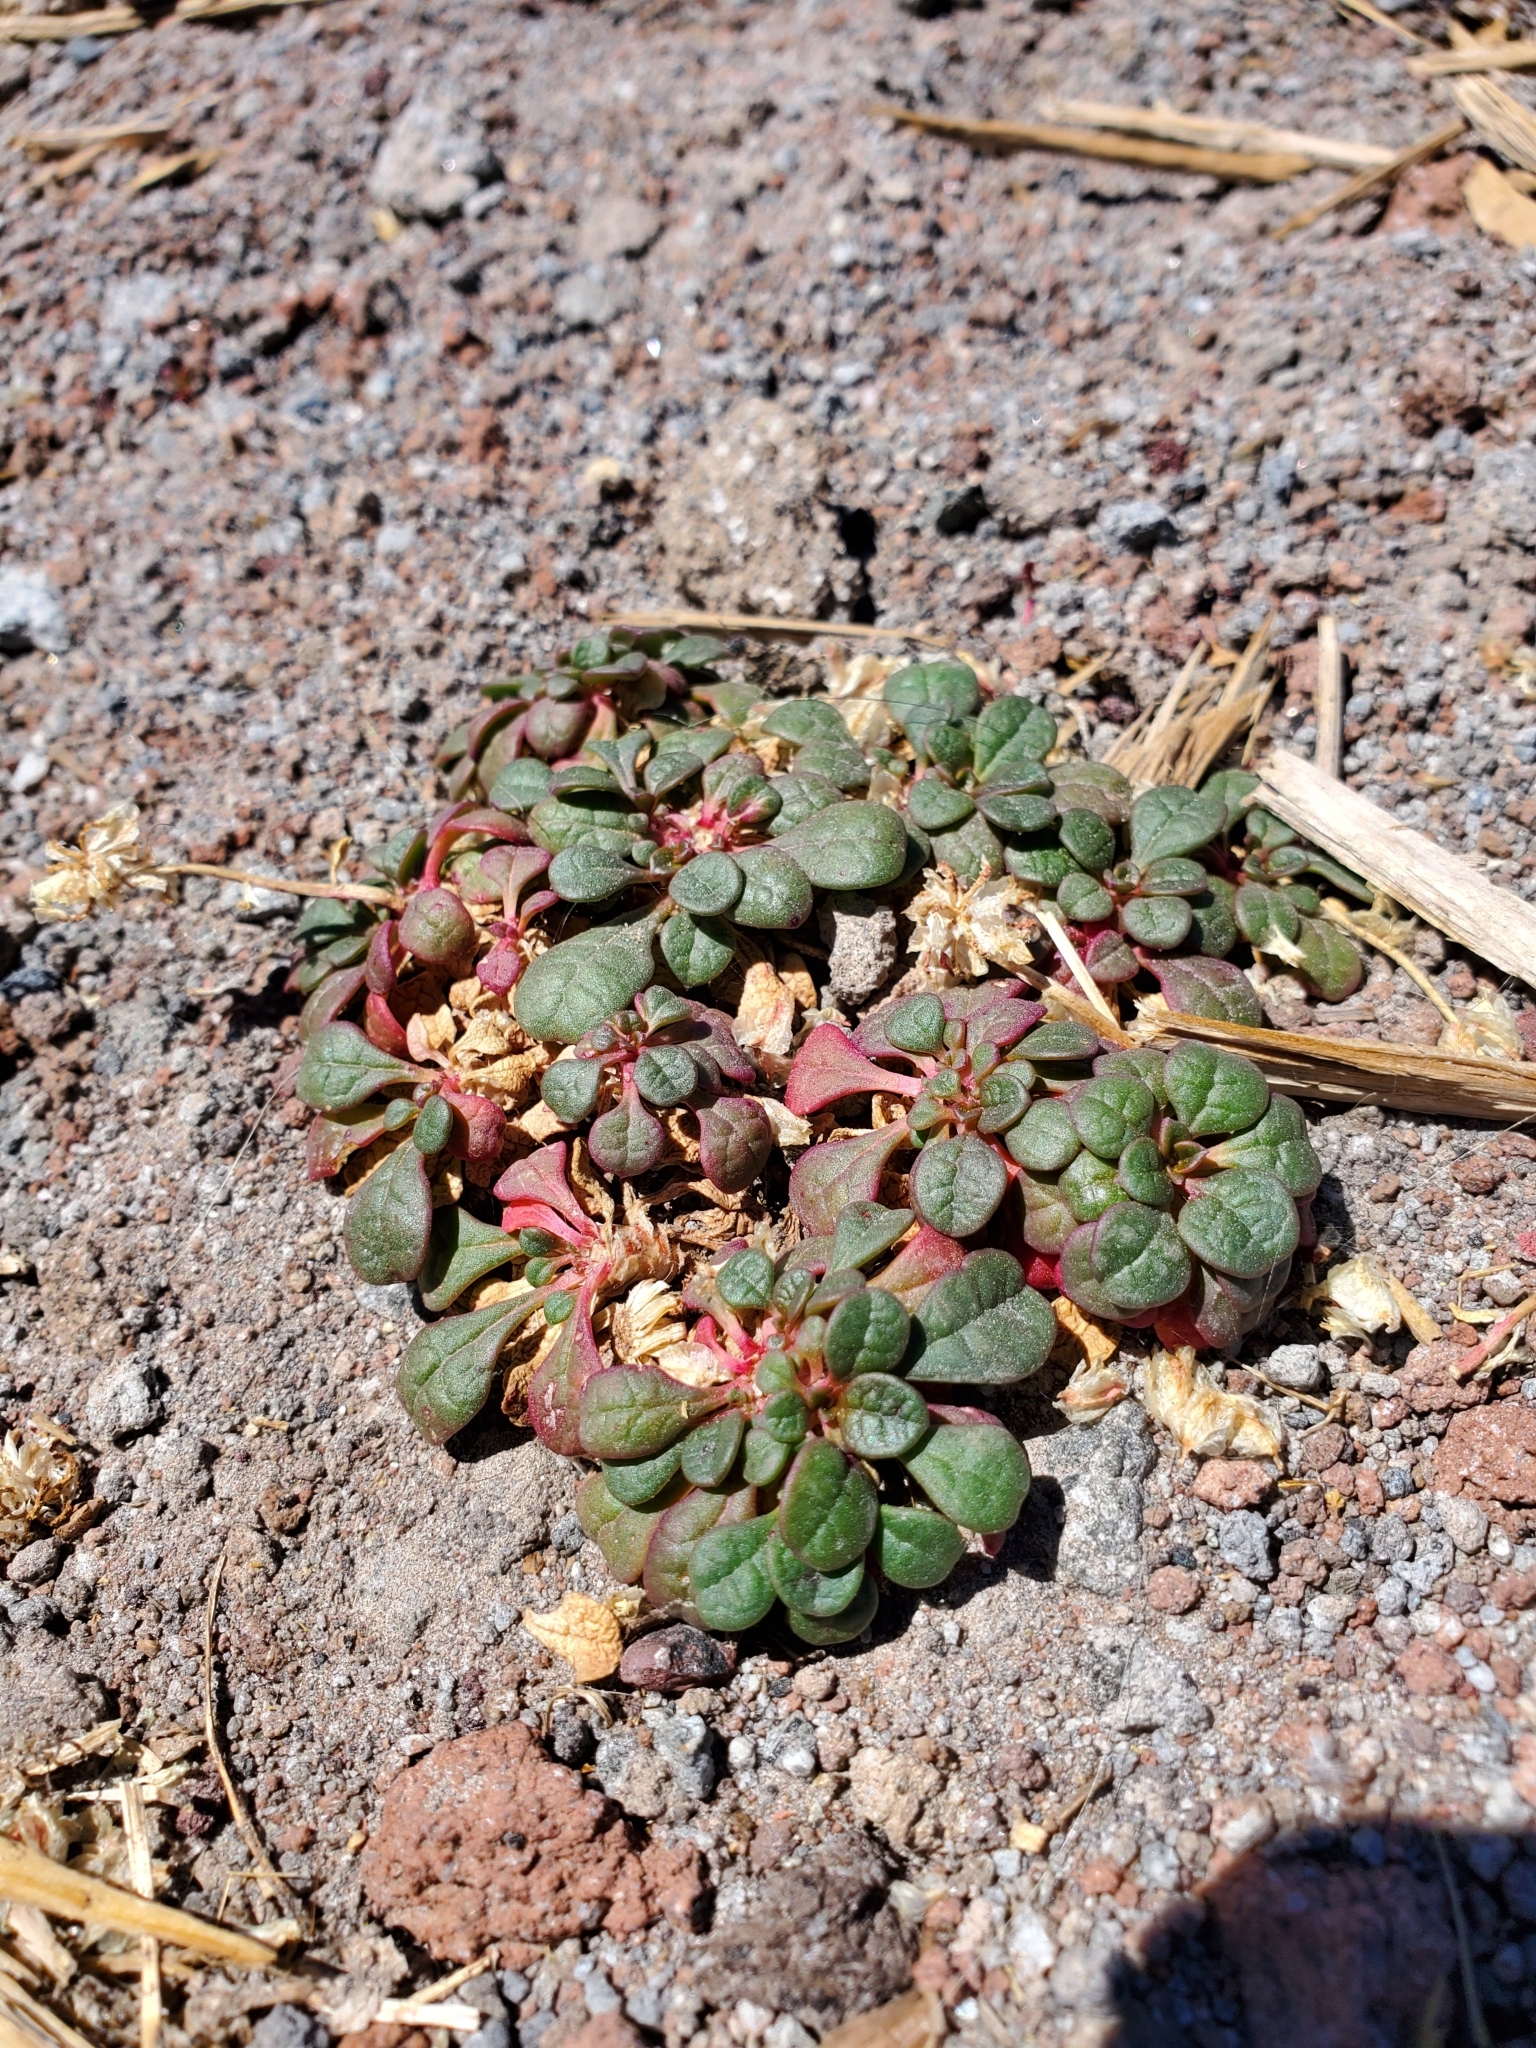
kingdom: Plantae
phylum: Tracheophyta
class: Magnoliopsida
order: Caryophyllales
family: Montiaceae
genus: Calyptridium
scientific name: Calyptridium umbellatum
